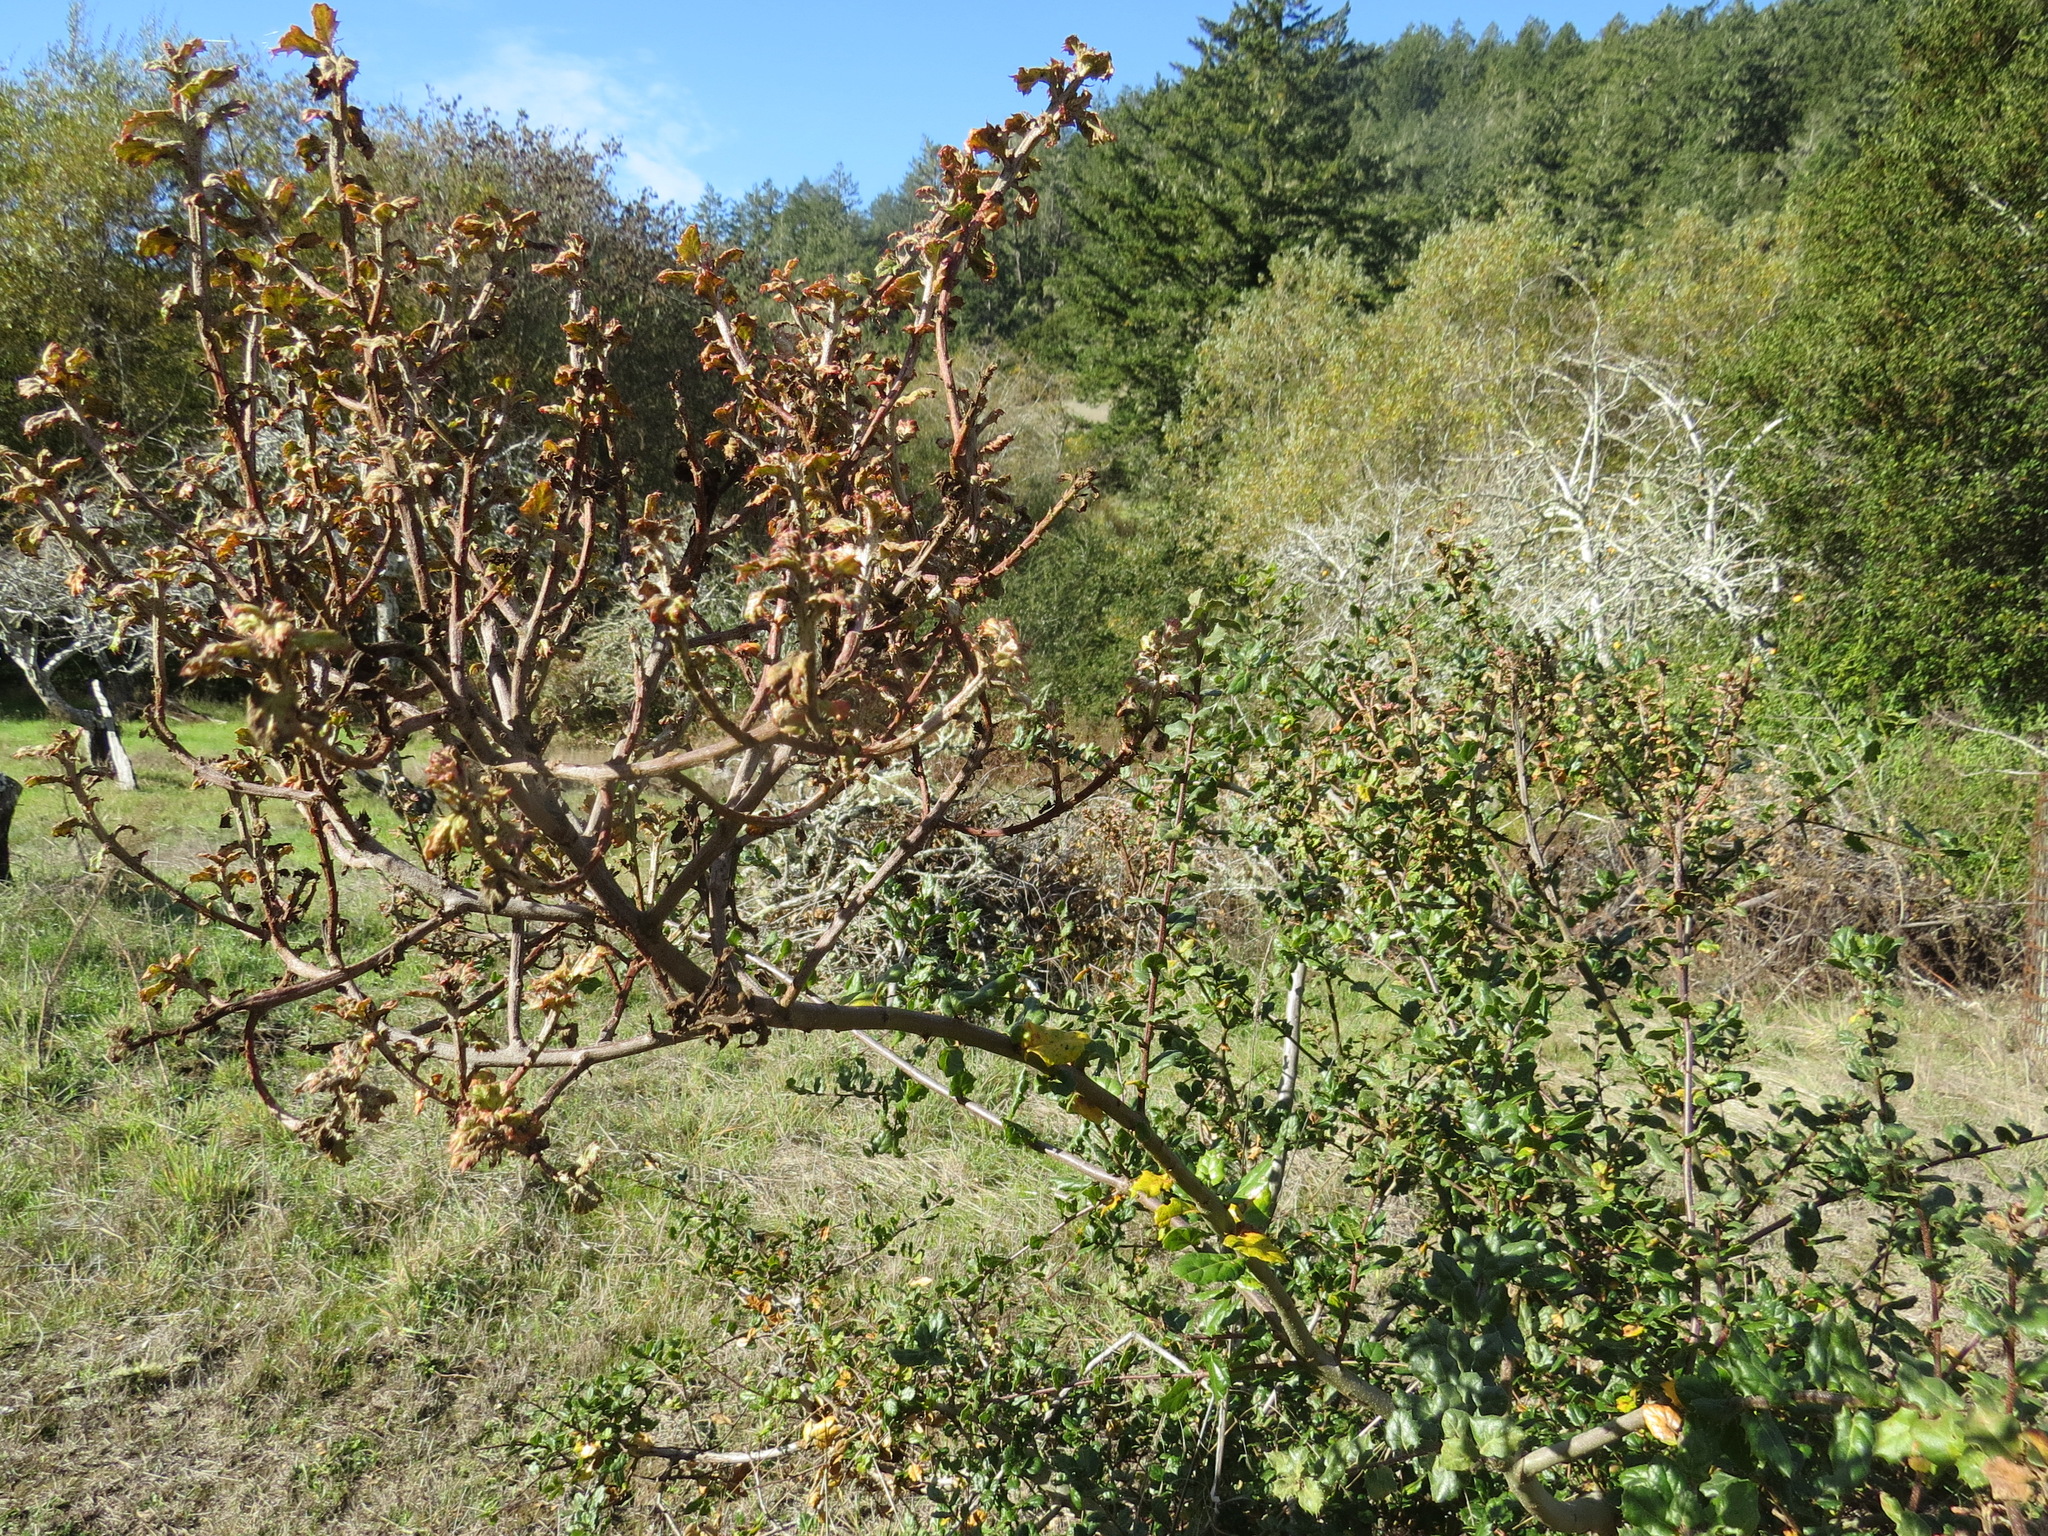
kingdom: Fungi
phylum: Ascomycota
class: Leotiomycetes
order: Helotiales
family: Erysiphaceae
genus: Cystotheca
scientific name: Cystotheca lanestris
